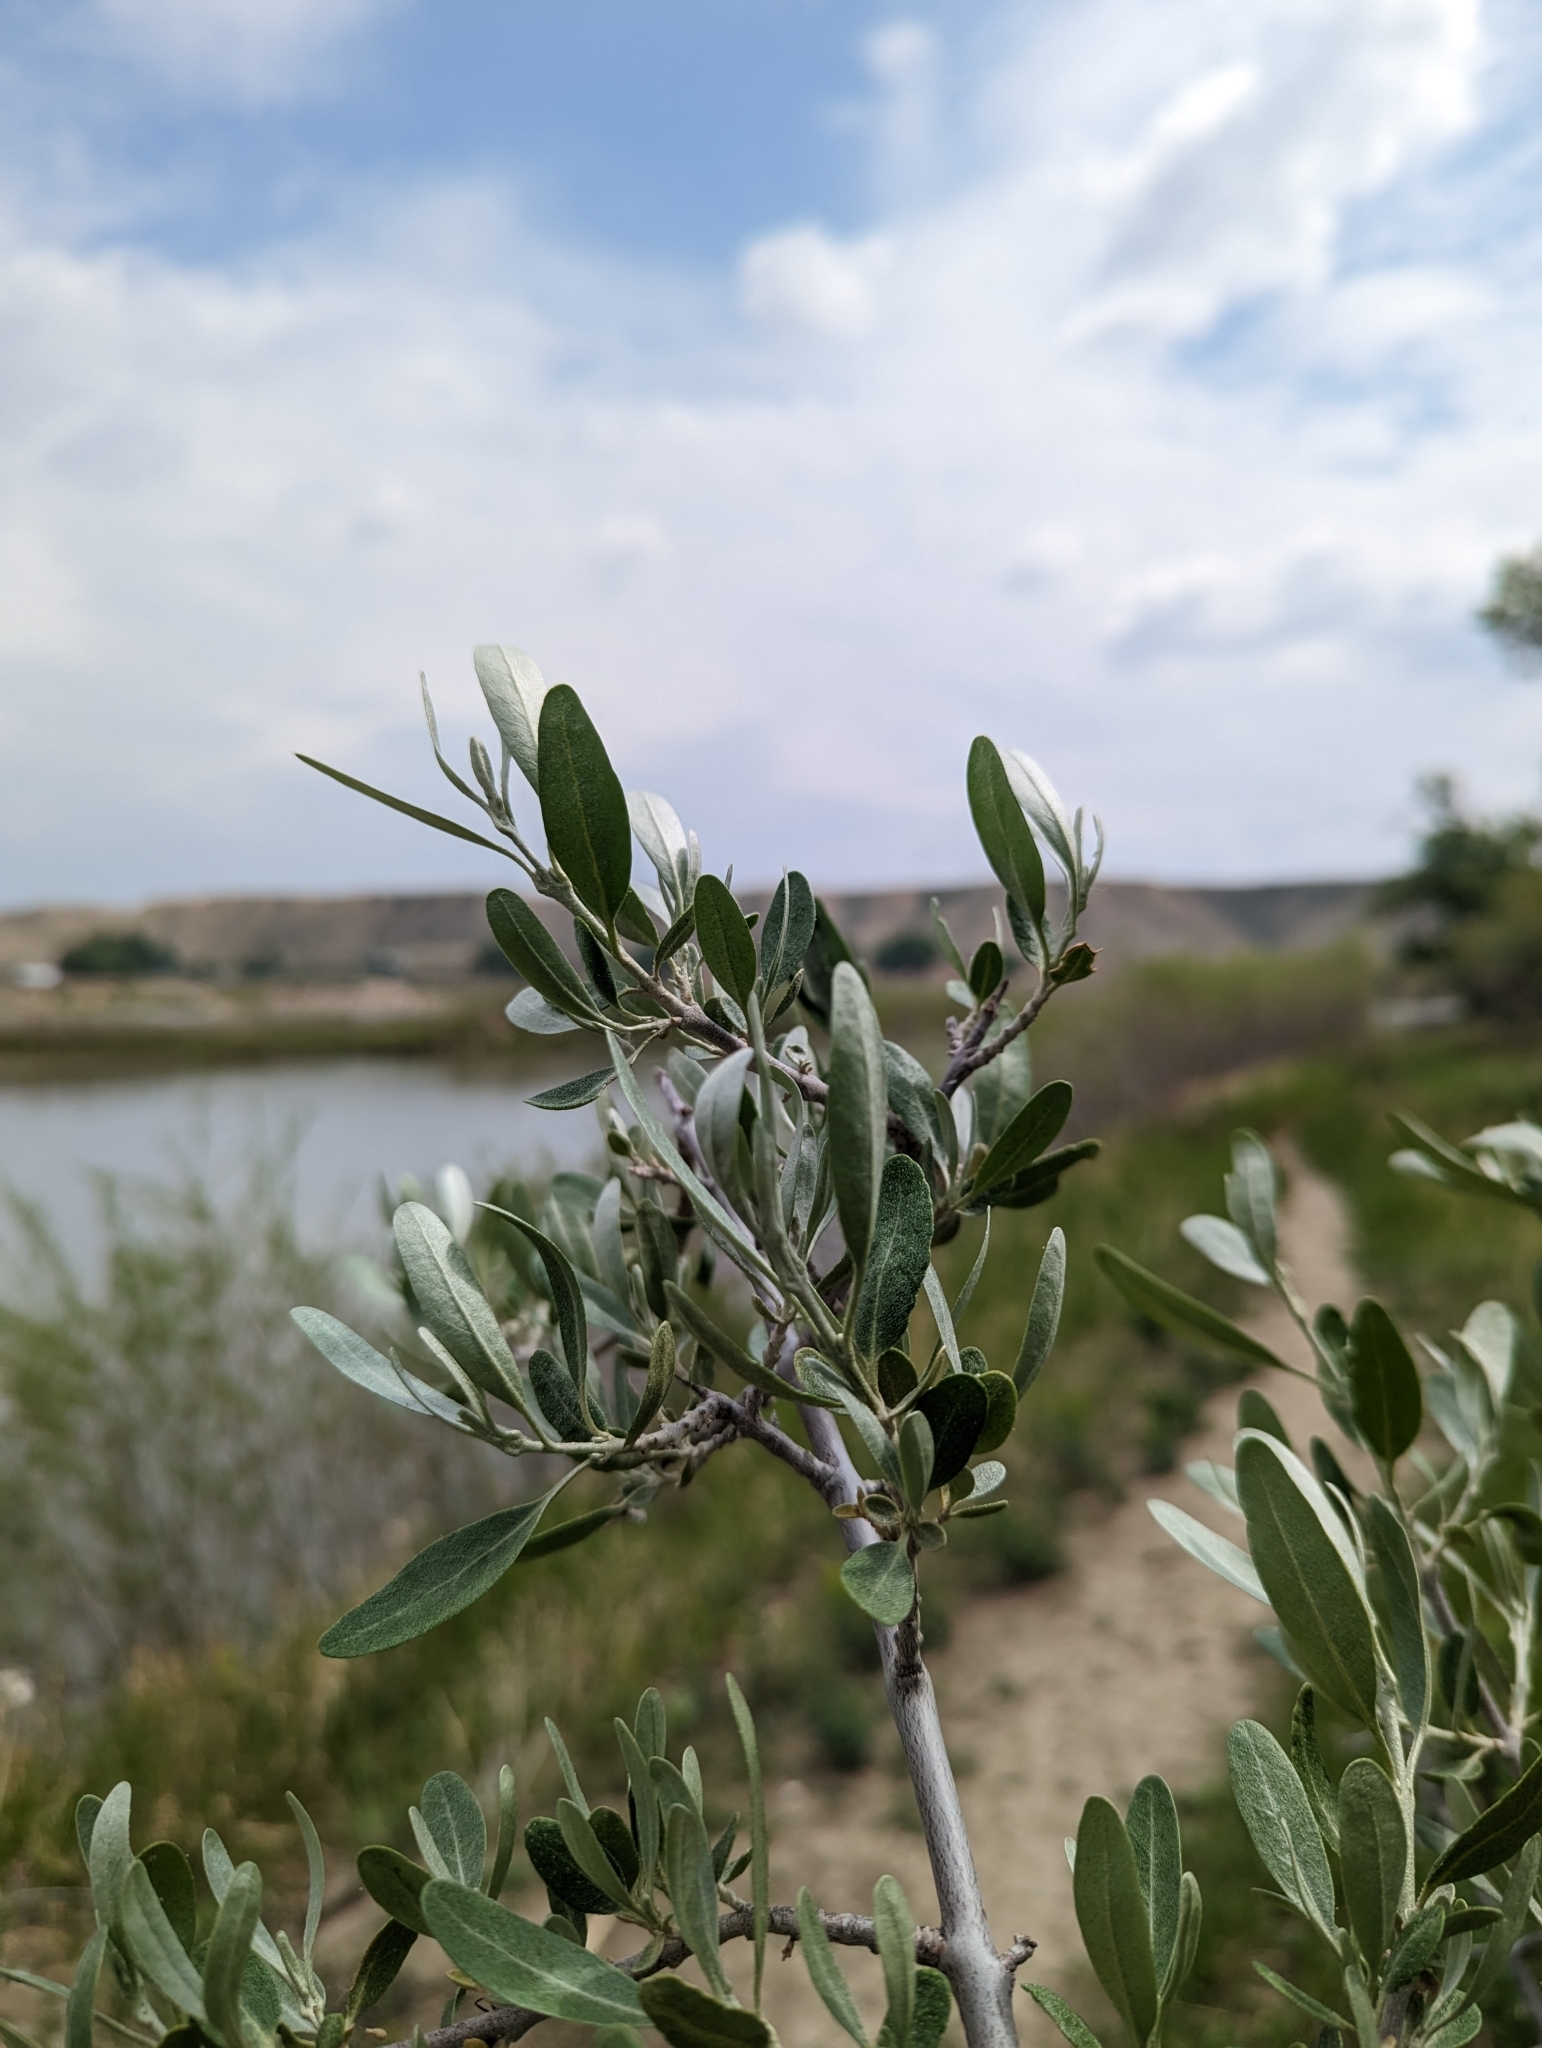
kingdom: Plantae
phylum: Tracheophyta
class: Magnoliopsida
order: Rosales
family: Elaeagnaceae
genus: Shepherdia
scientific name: Shepherdia argentea
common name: Silver buffaloberry
